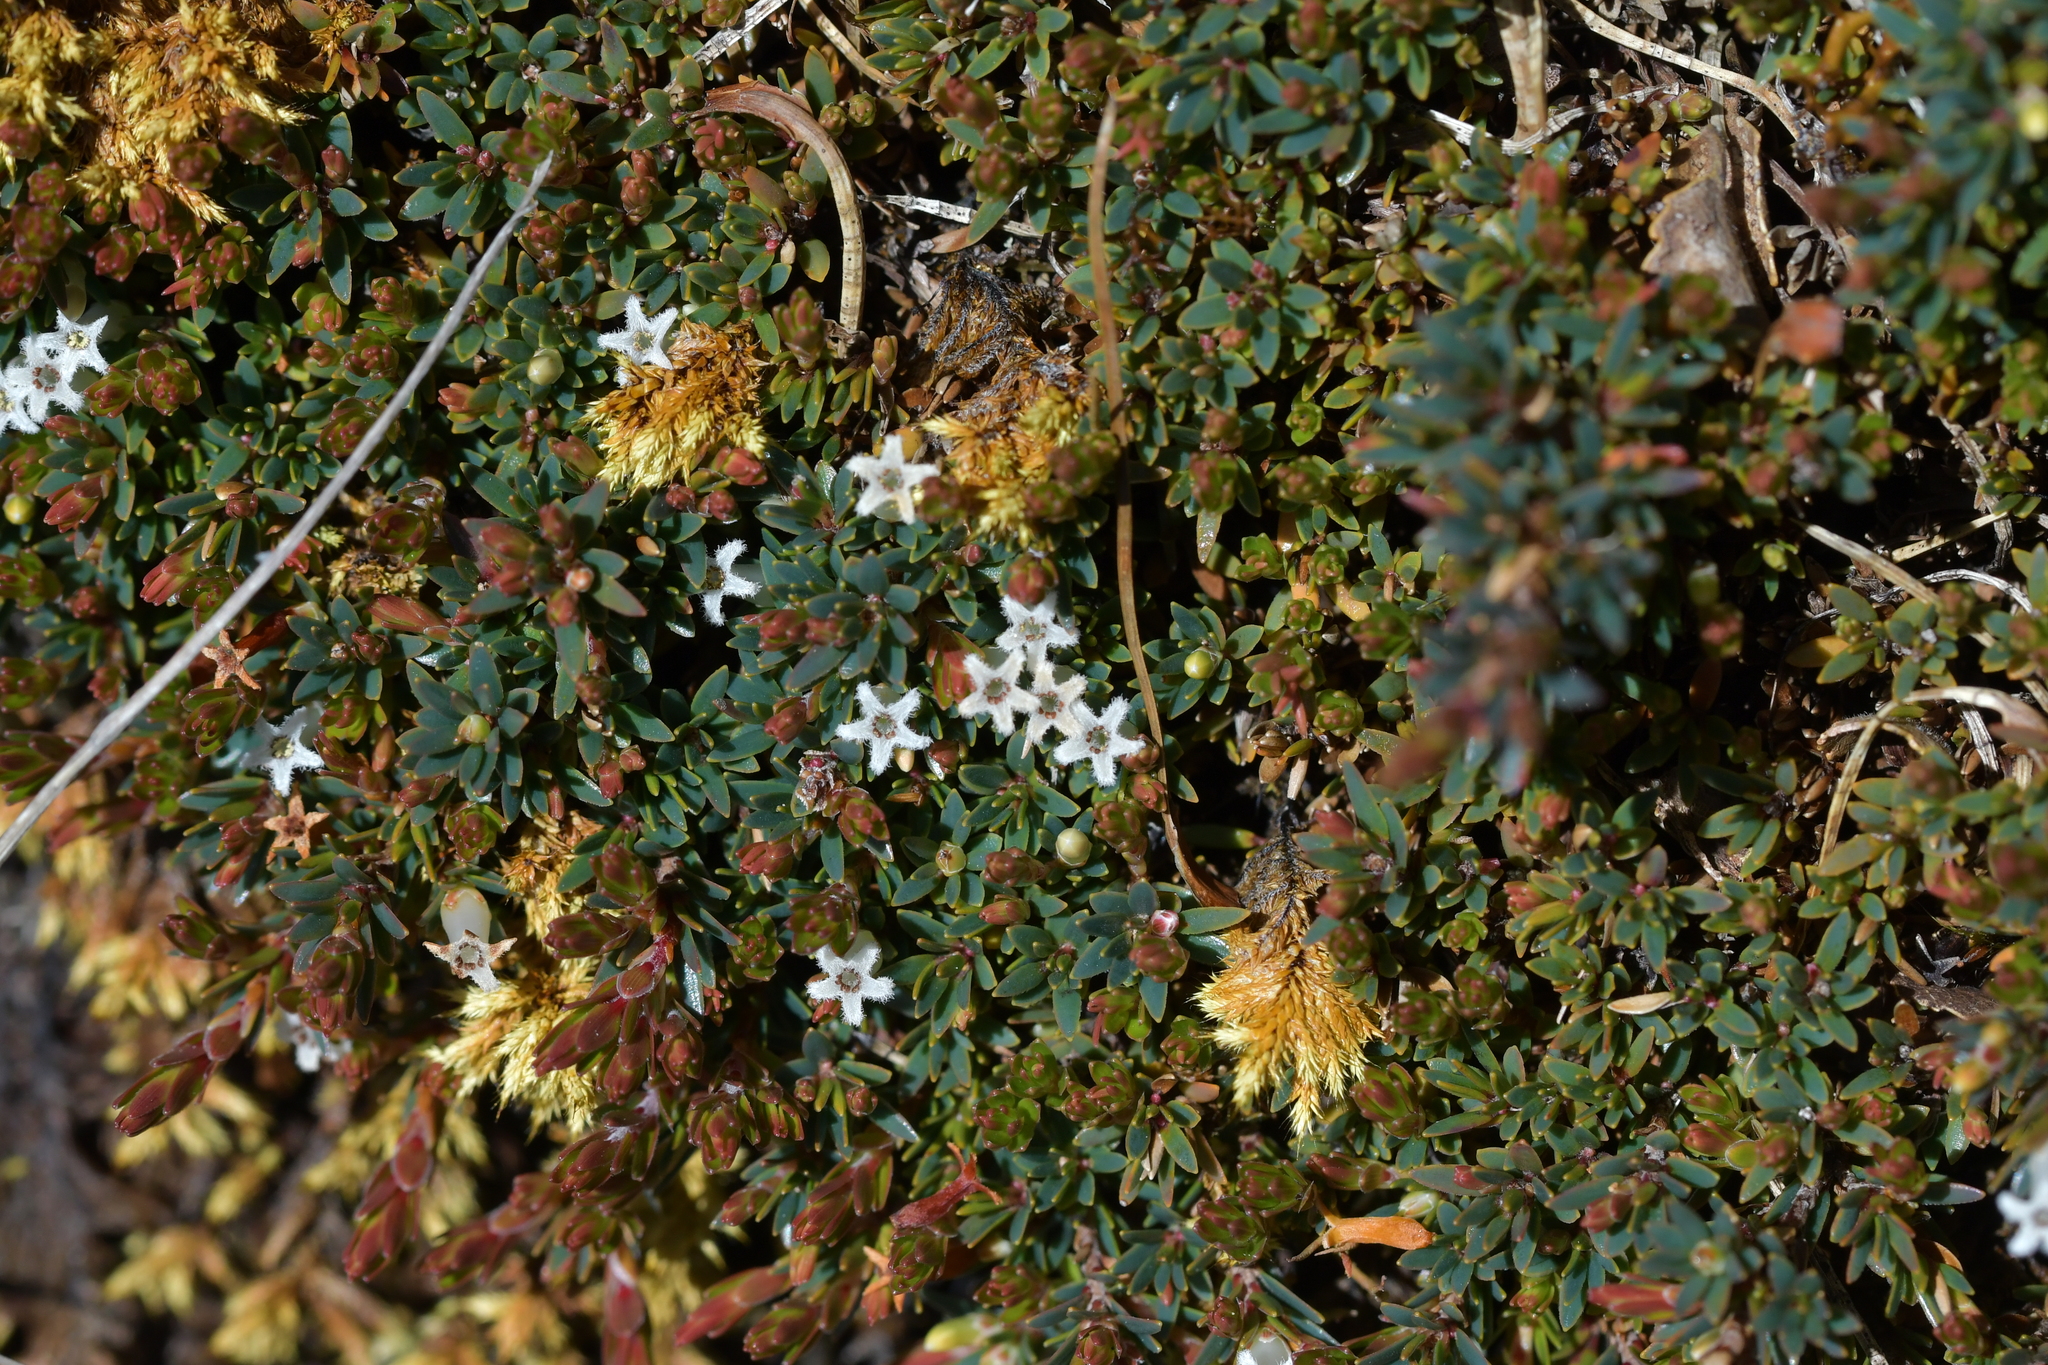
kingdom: Plantae
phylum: Tracheophyta
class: Magnoliopsida
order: Ericales
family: Ericaceae
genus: Pentachondra
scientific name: Pentachondra pumila
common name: Carpet-heath
